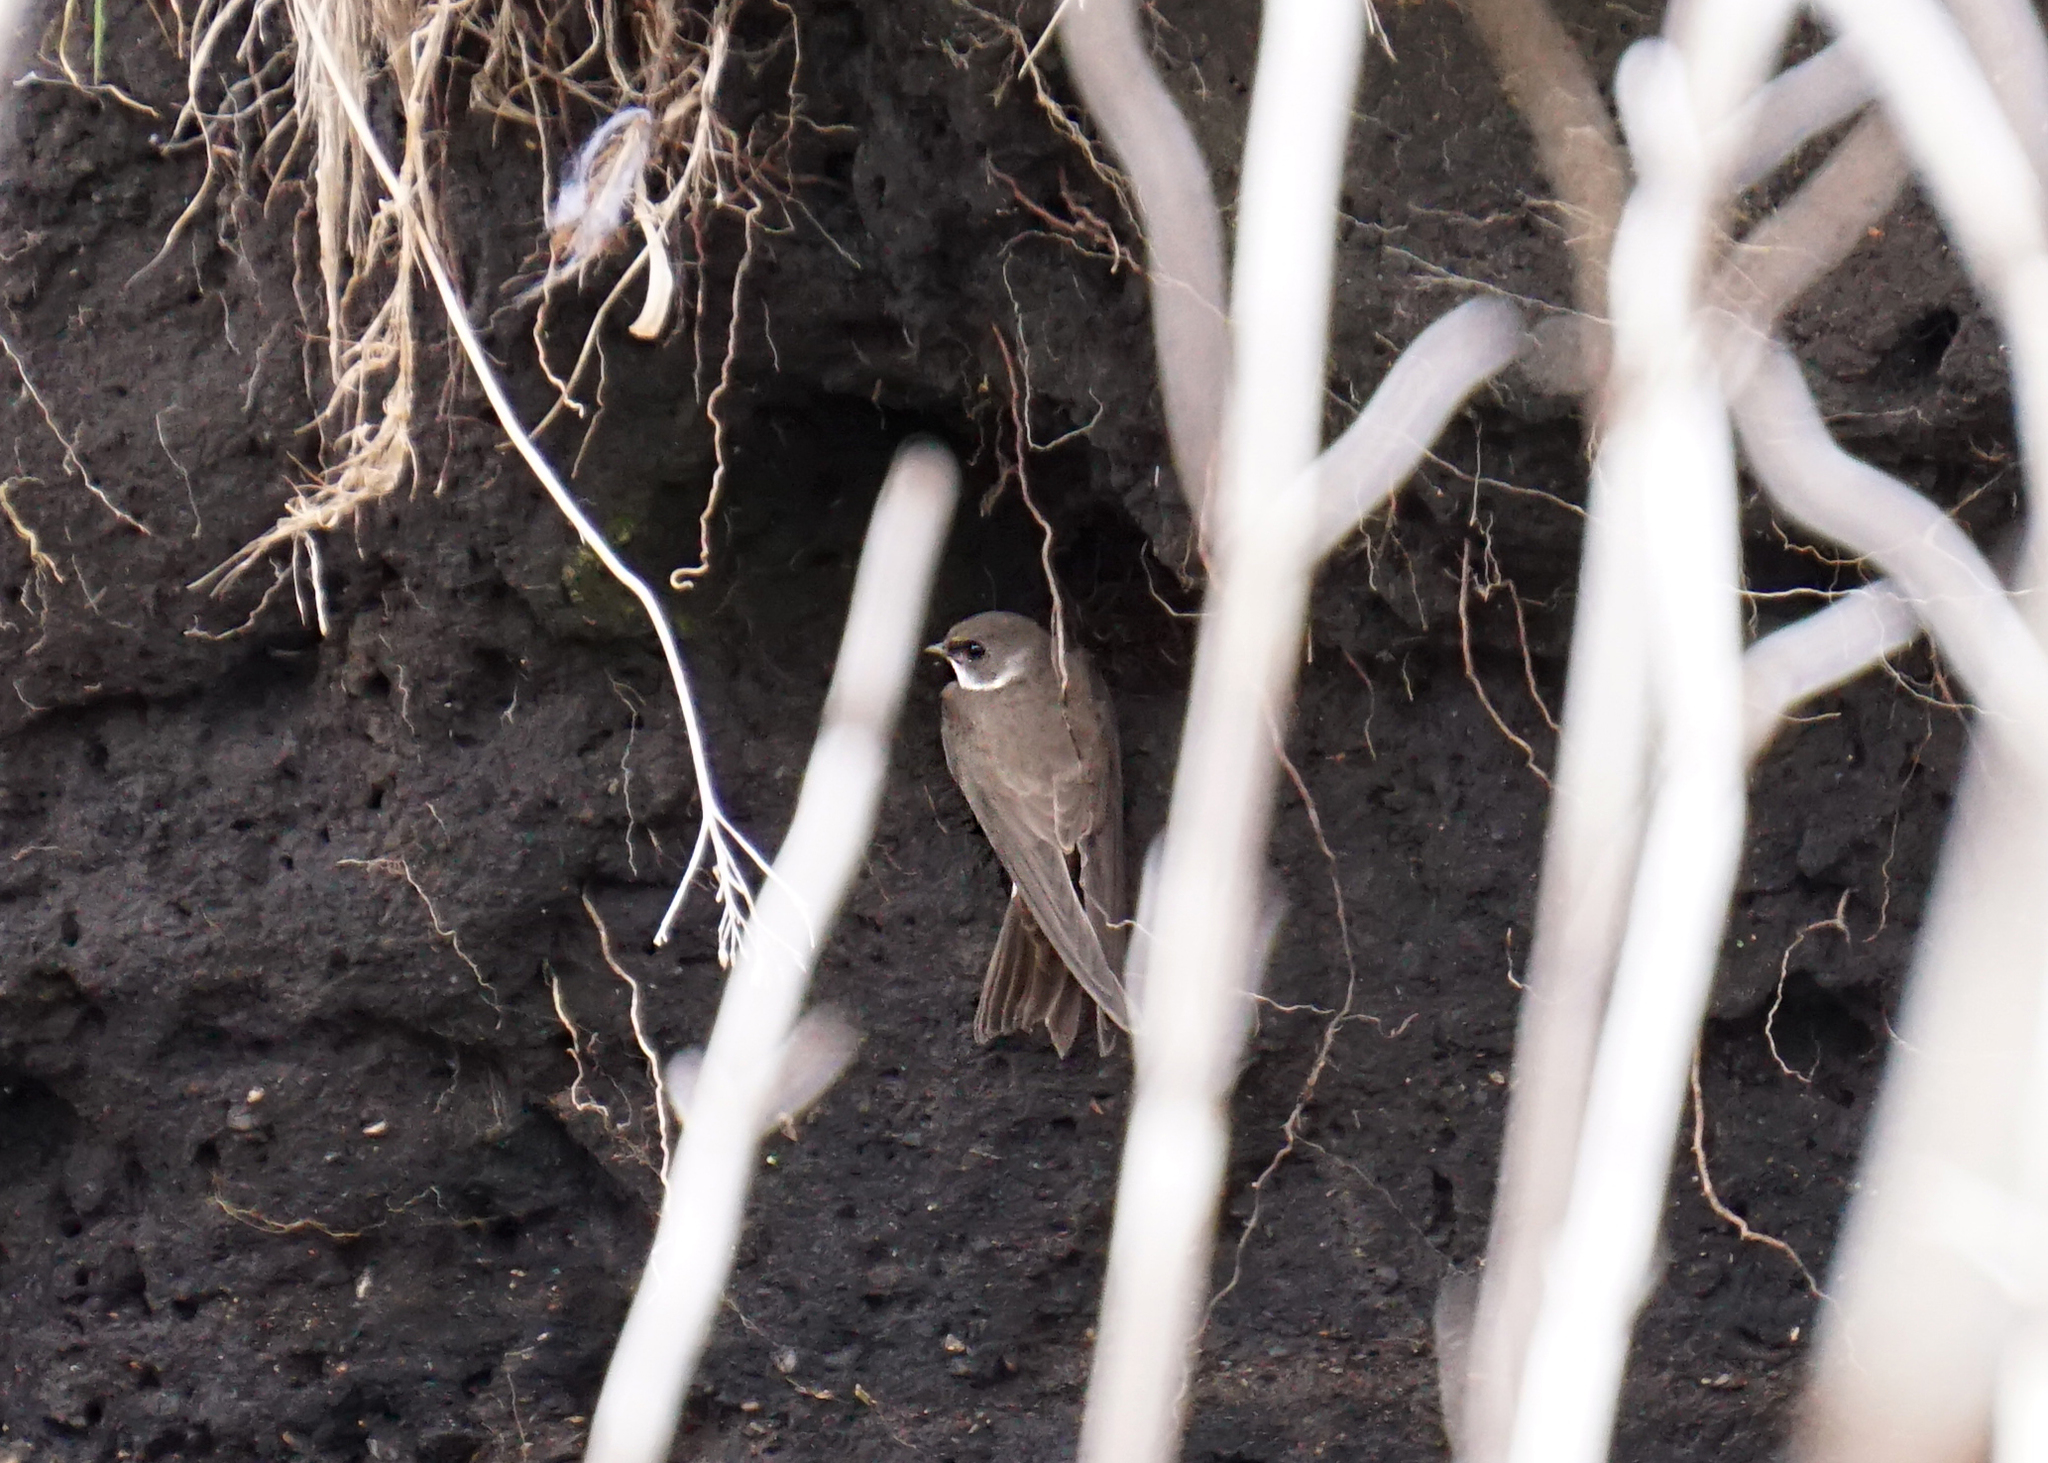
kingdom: Animalia
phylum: Chordata
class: Aves
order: Passeriformes
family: Hirundinidae
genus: Riparia
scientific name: Riparia riparia
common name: Sand martin
